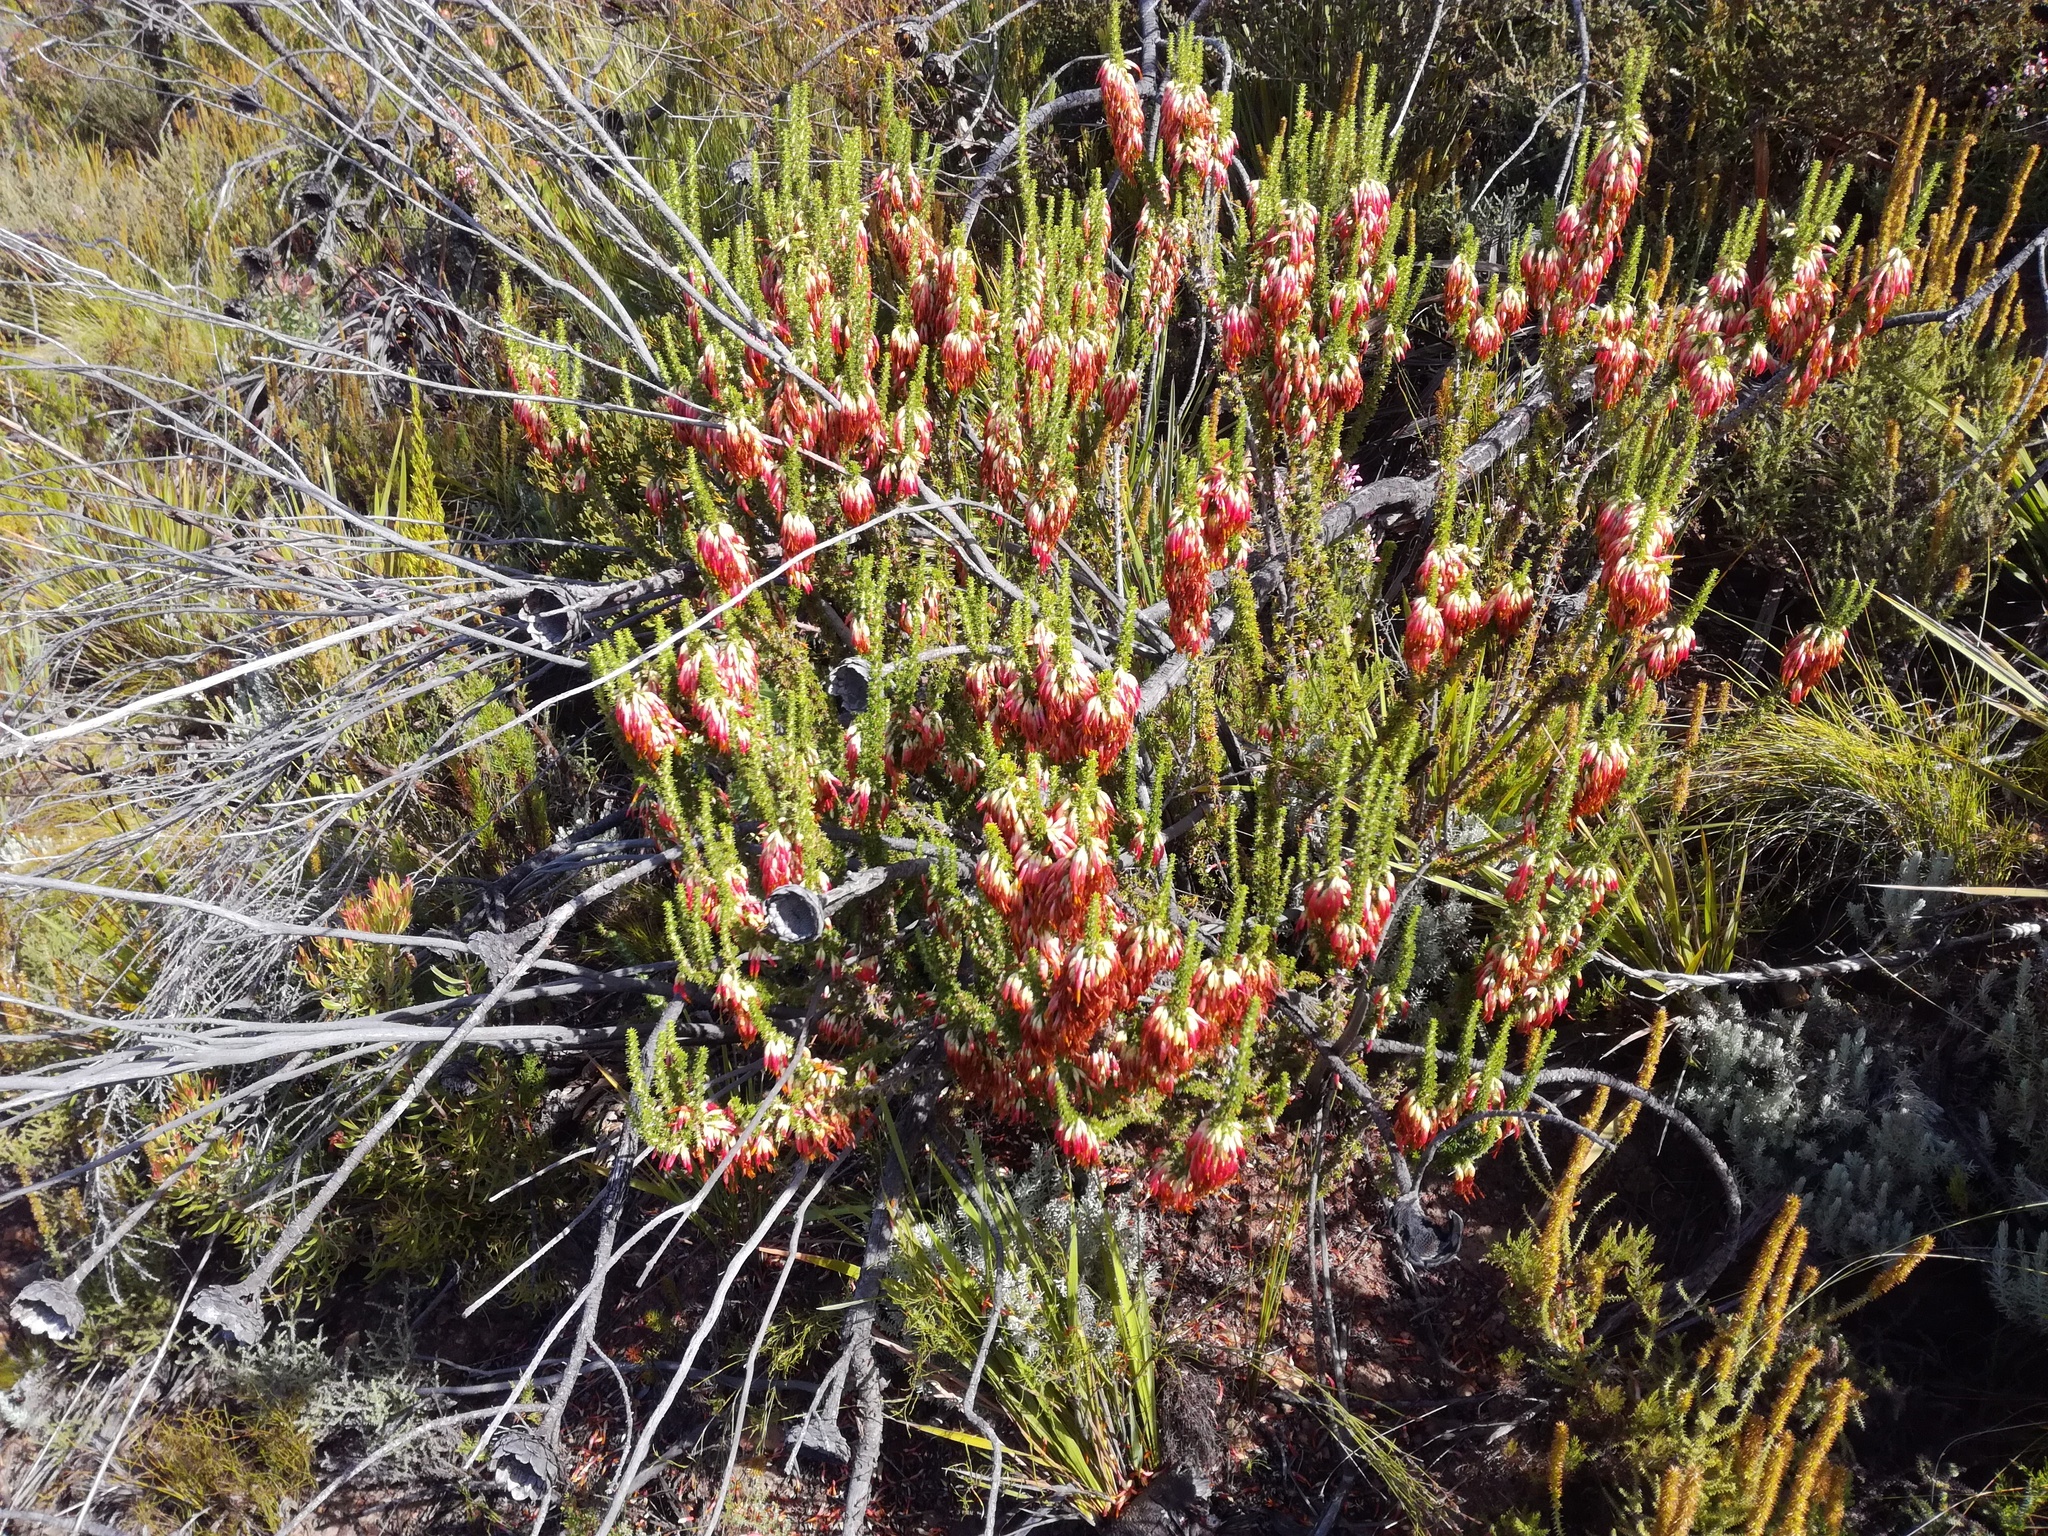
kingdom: Plantae
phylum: Tracheophyta
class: Magnoliopsida
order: Ericales
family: Ericaceae
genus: Erica
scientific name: Erica coccinea
